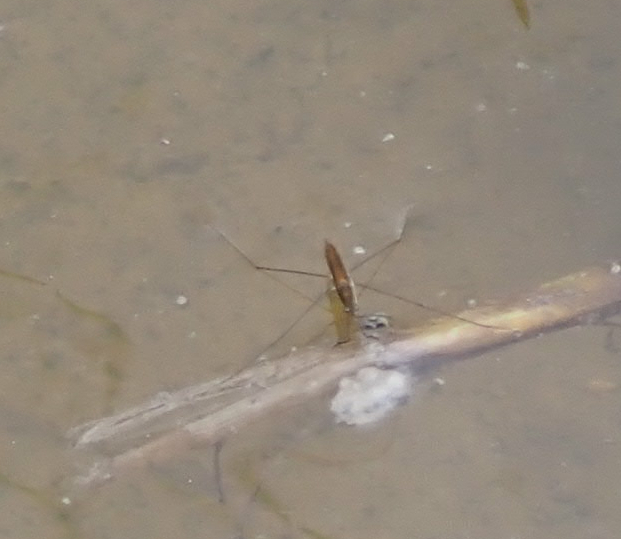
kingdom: Animalia
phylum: Arthropoda
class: Insecta
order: Hemiptera
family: Gerridae
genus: Limnoporus
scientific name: Limnoporus dissortis
